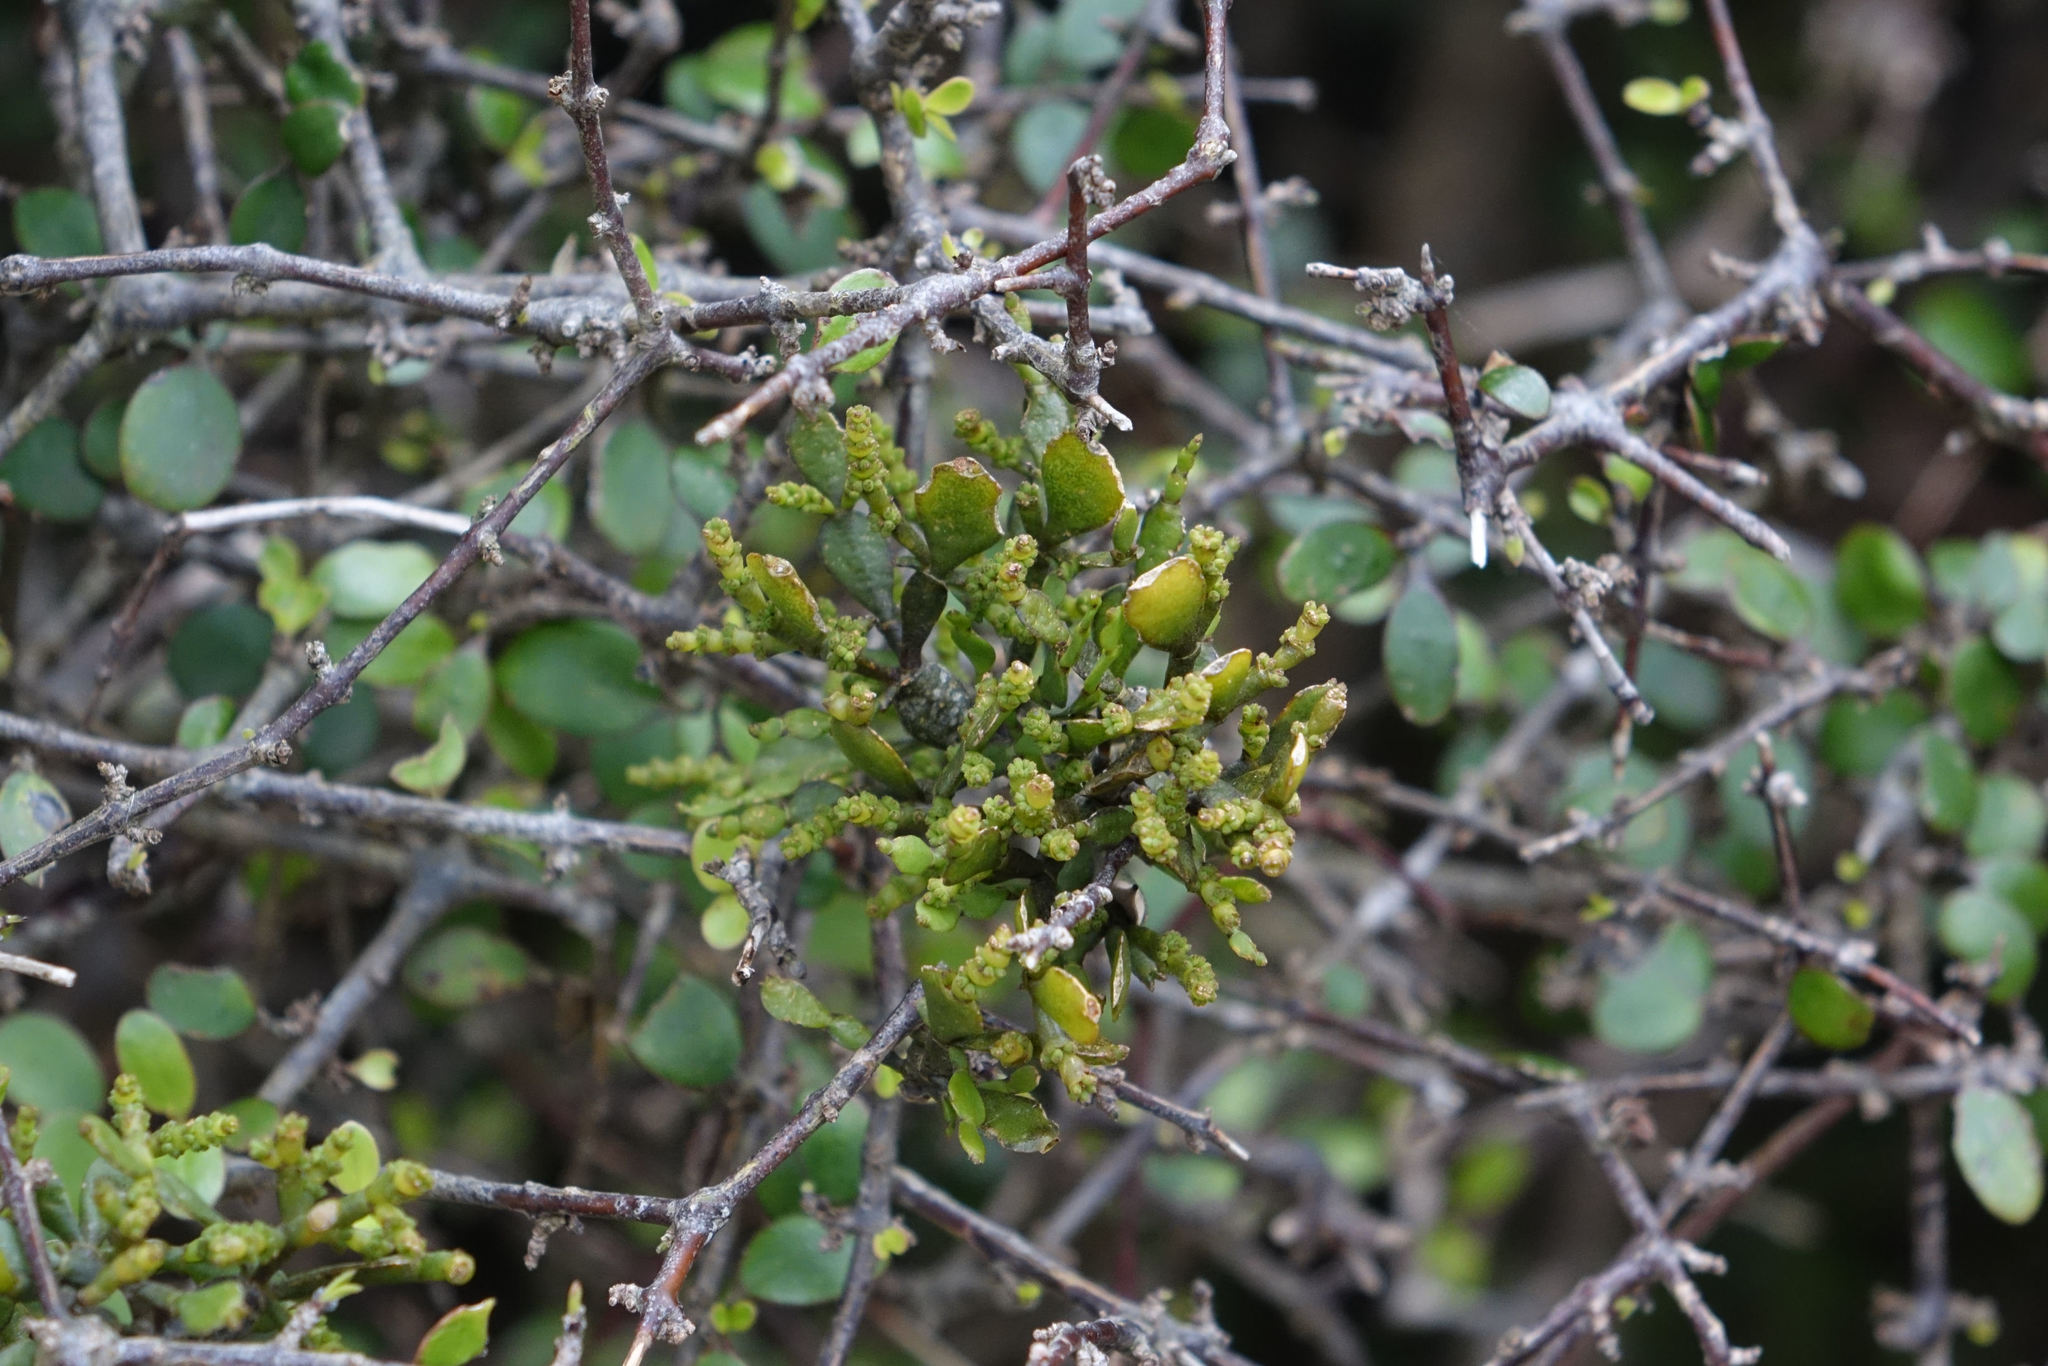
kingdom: Plantae
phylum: Tracheophyta
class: Magnoliopsida
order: Santalales
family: Viscaceae
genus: Korthalsella
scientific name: Korthalsella lindsayi
